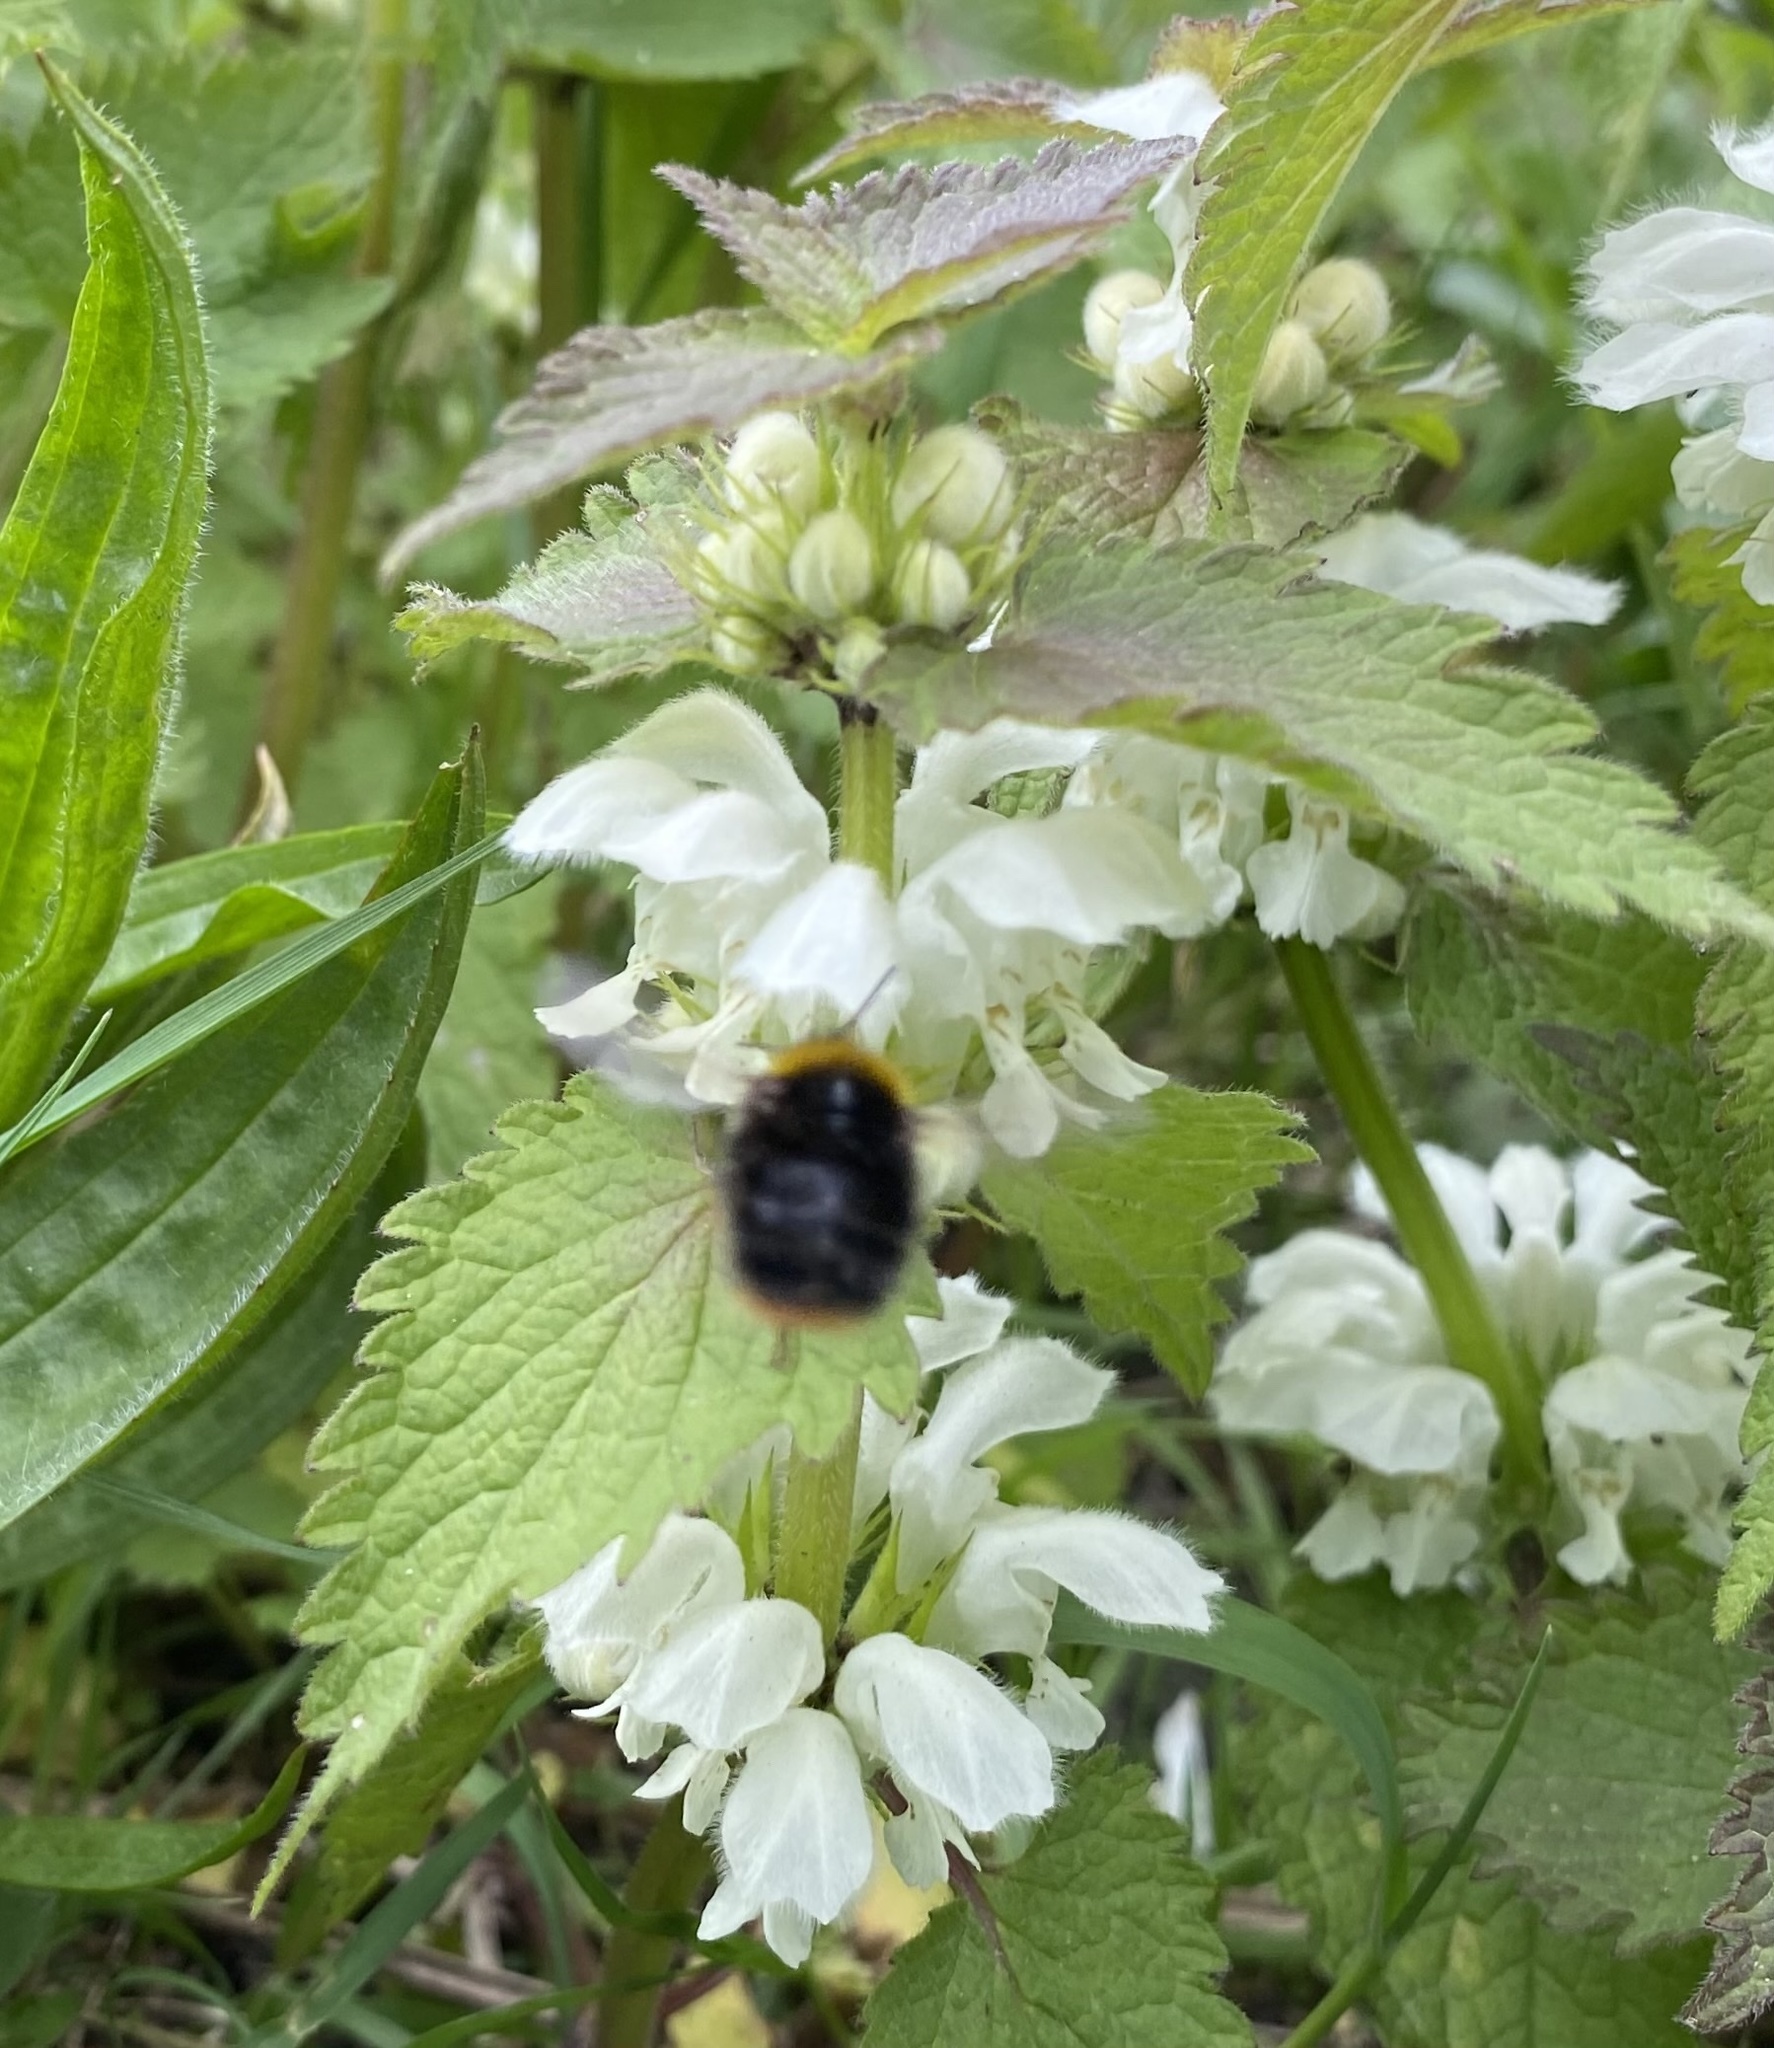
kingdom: Animalia
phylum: Arthropoda
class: Insecta
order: Hymenoptera
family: Apidae
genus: Bombus
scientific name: Bombus pratorum
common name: Early humble-bee
